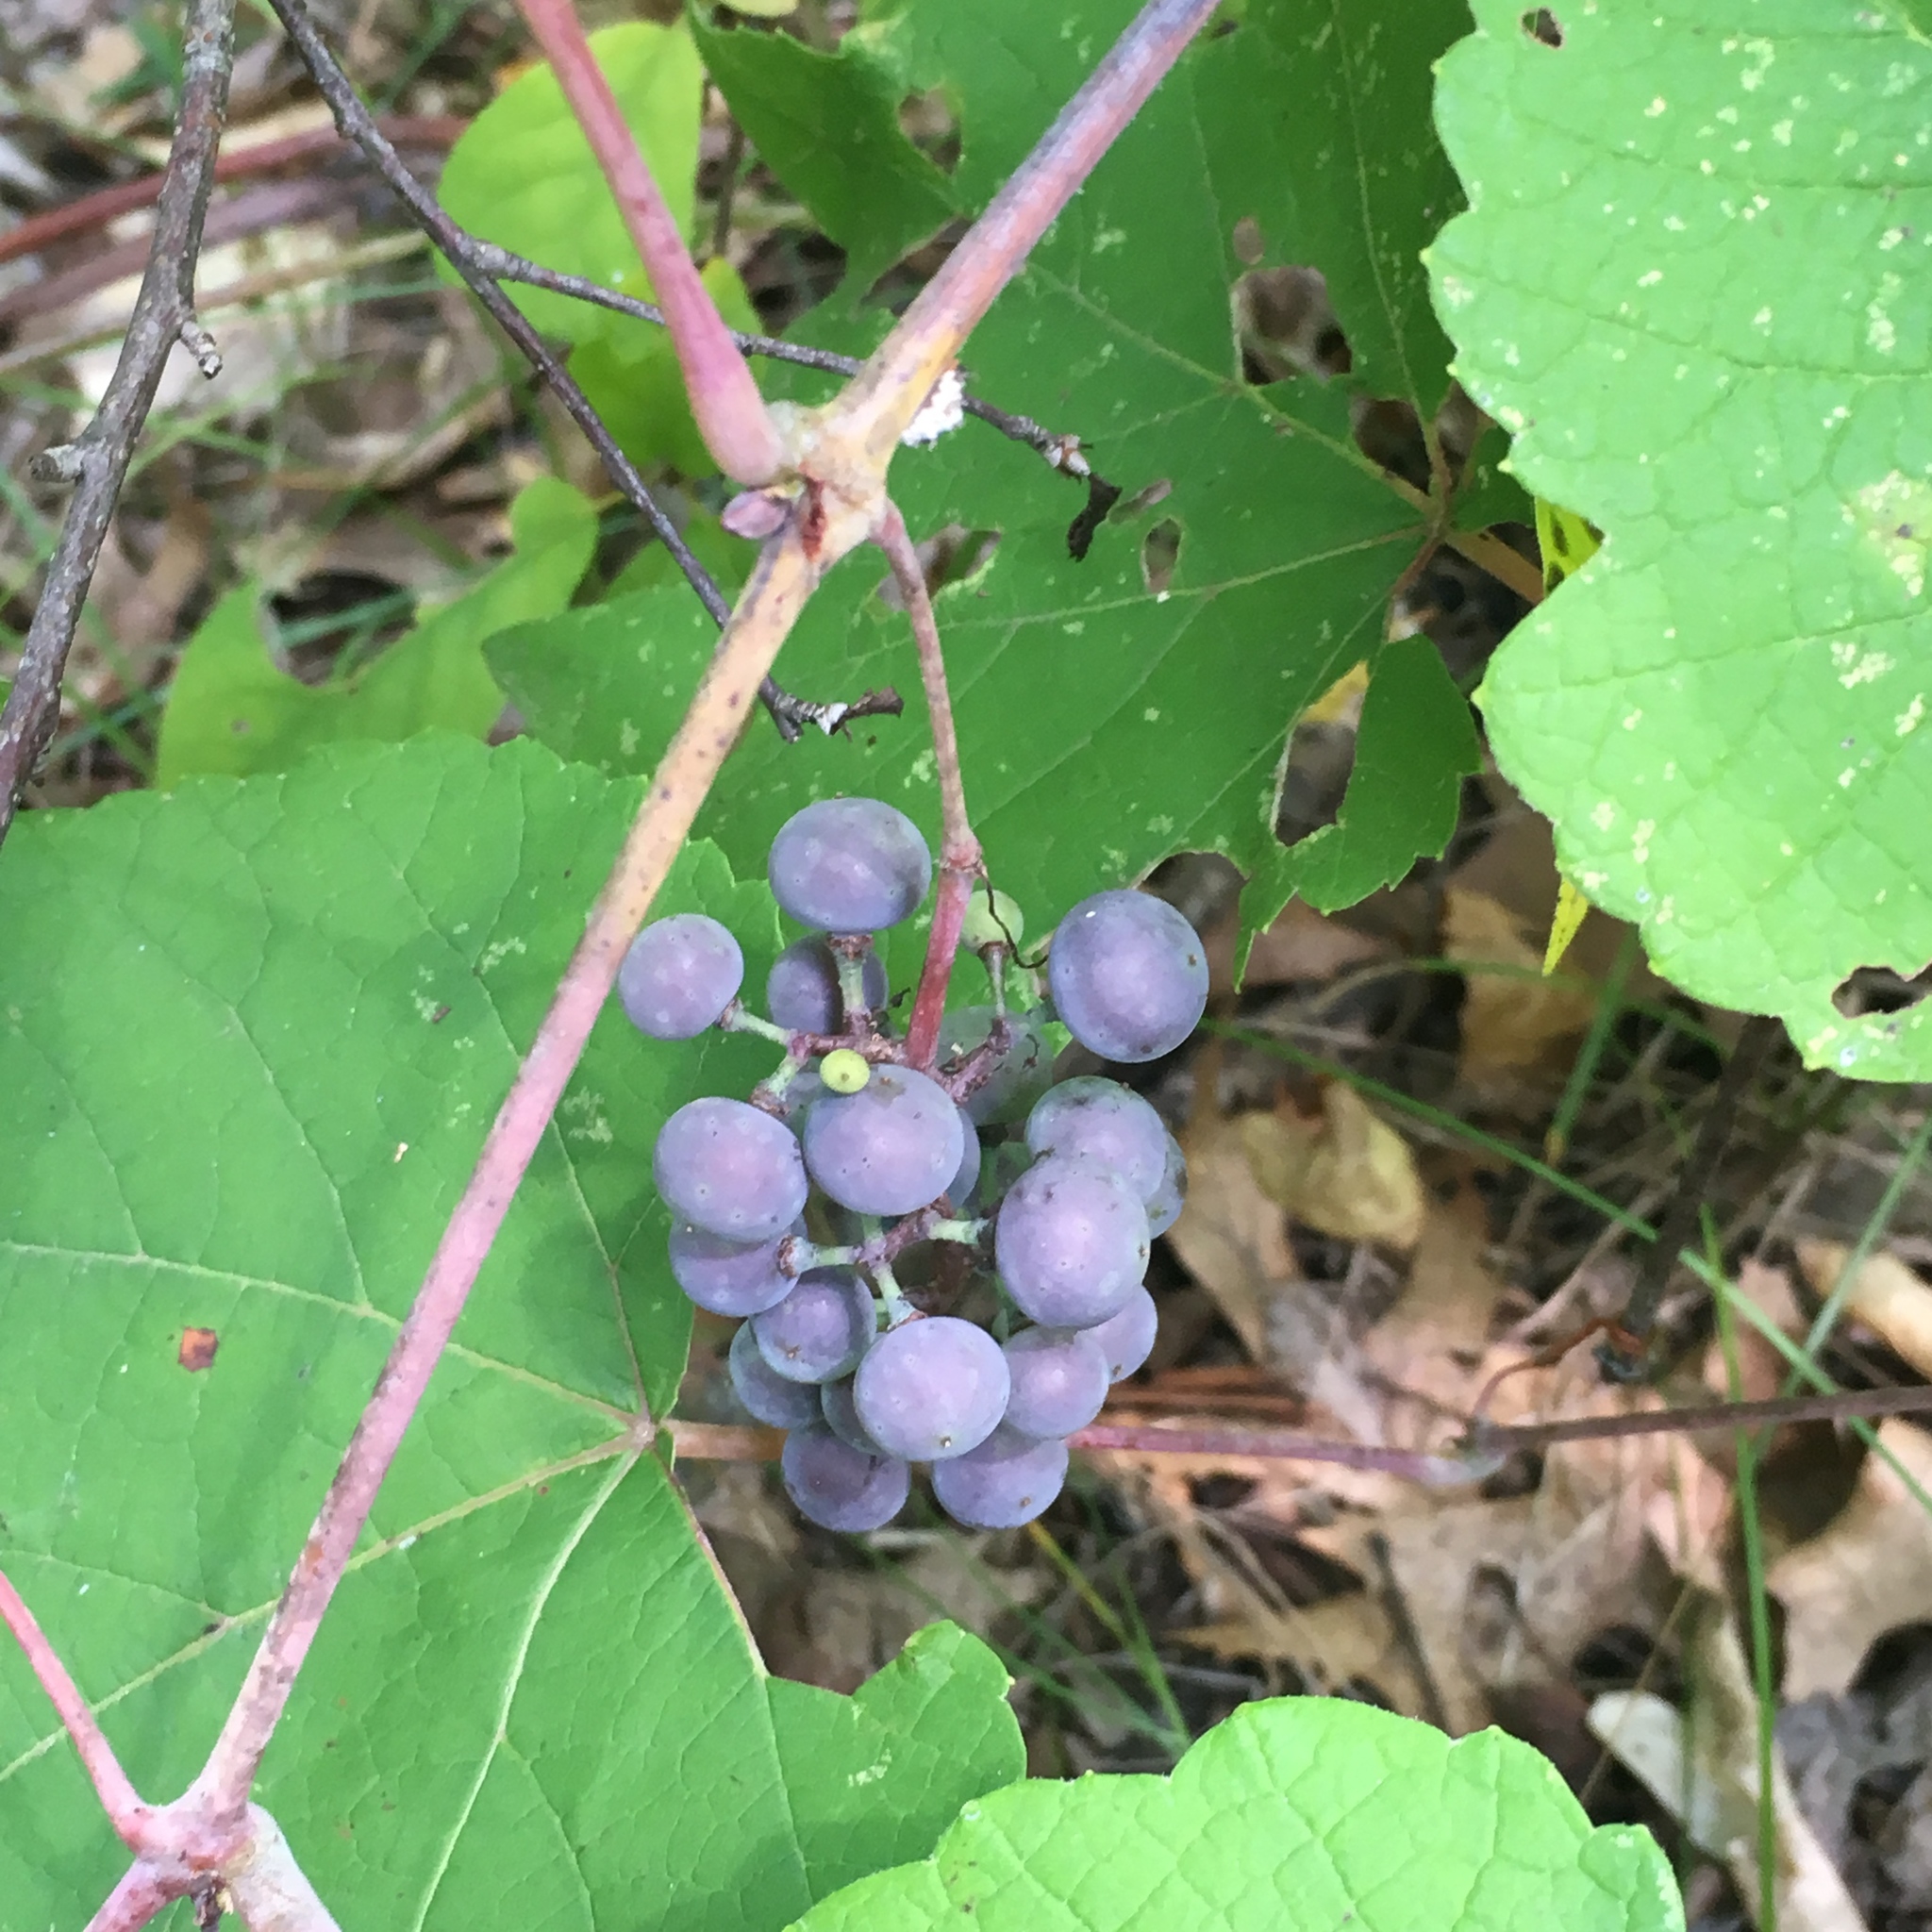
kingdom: Plantae
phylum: Tracheophyta
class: Magnoliopsida
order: Vitales
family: Vitaceae
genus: Vitis
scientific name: Vitis aestivalis
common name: Pigeon grape
